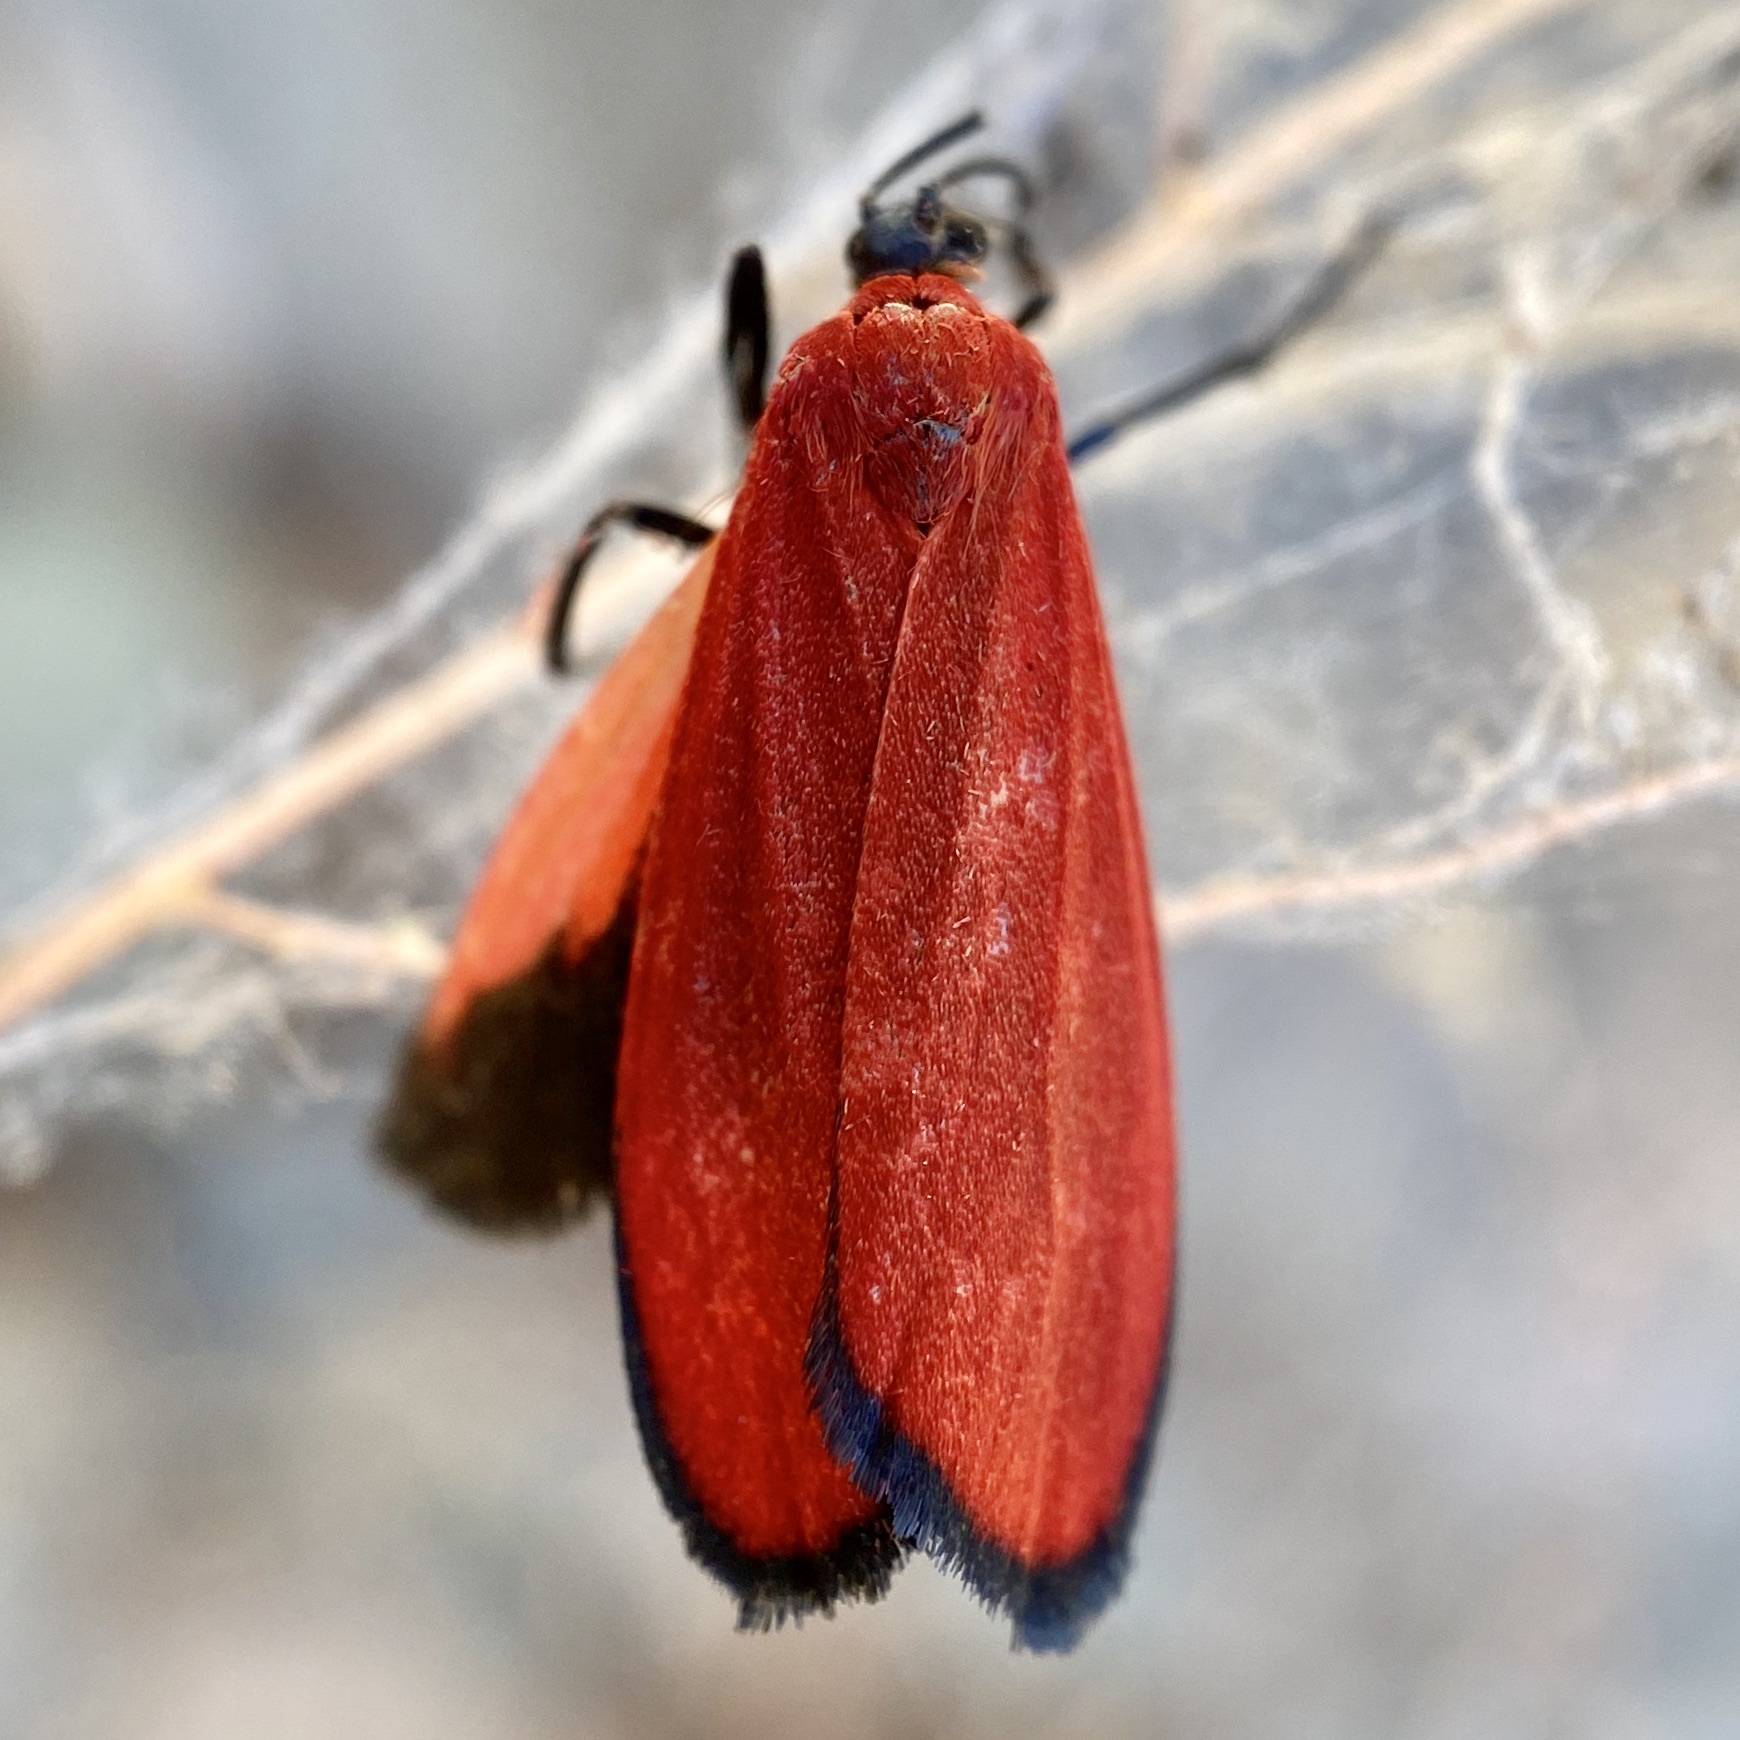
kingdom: Animalia
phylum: Arthropoda
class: Insecta
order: Lepidoptera
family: Erebidae
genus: Lycomorpha
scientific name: Lycomorpha regulus
